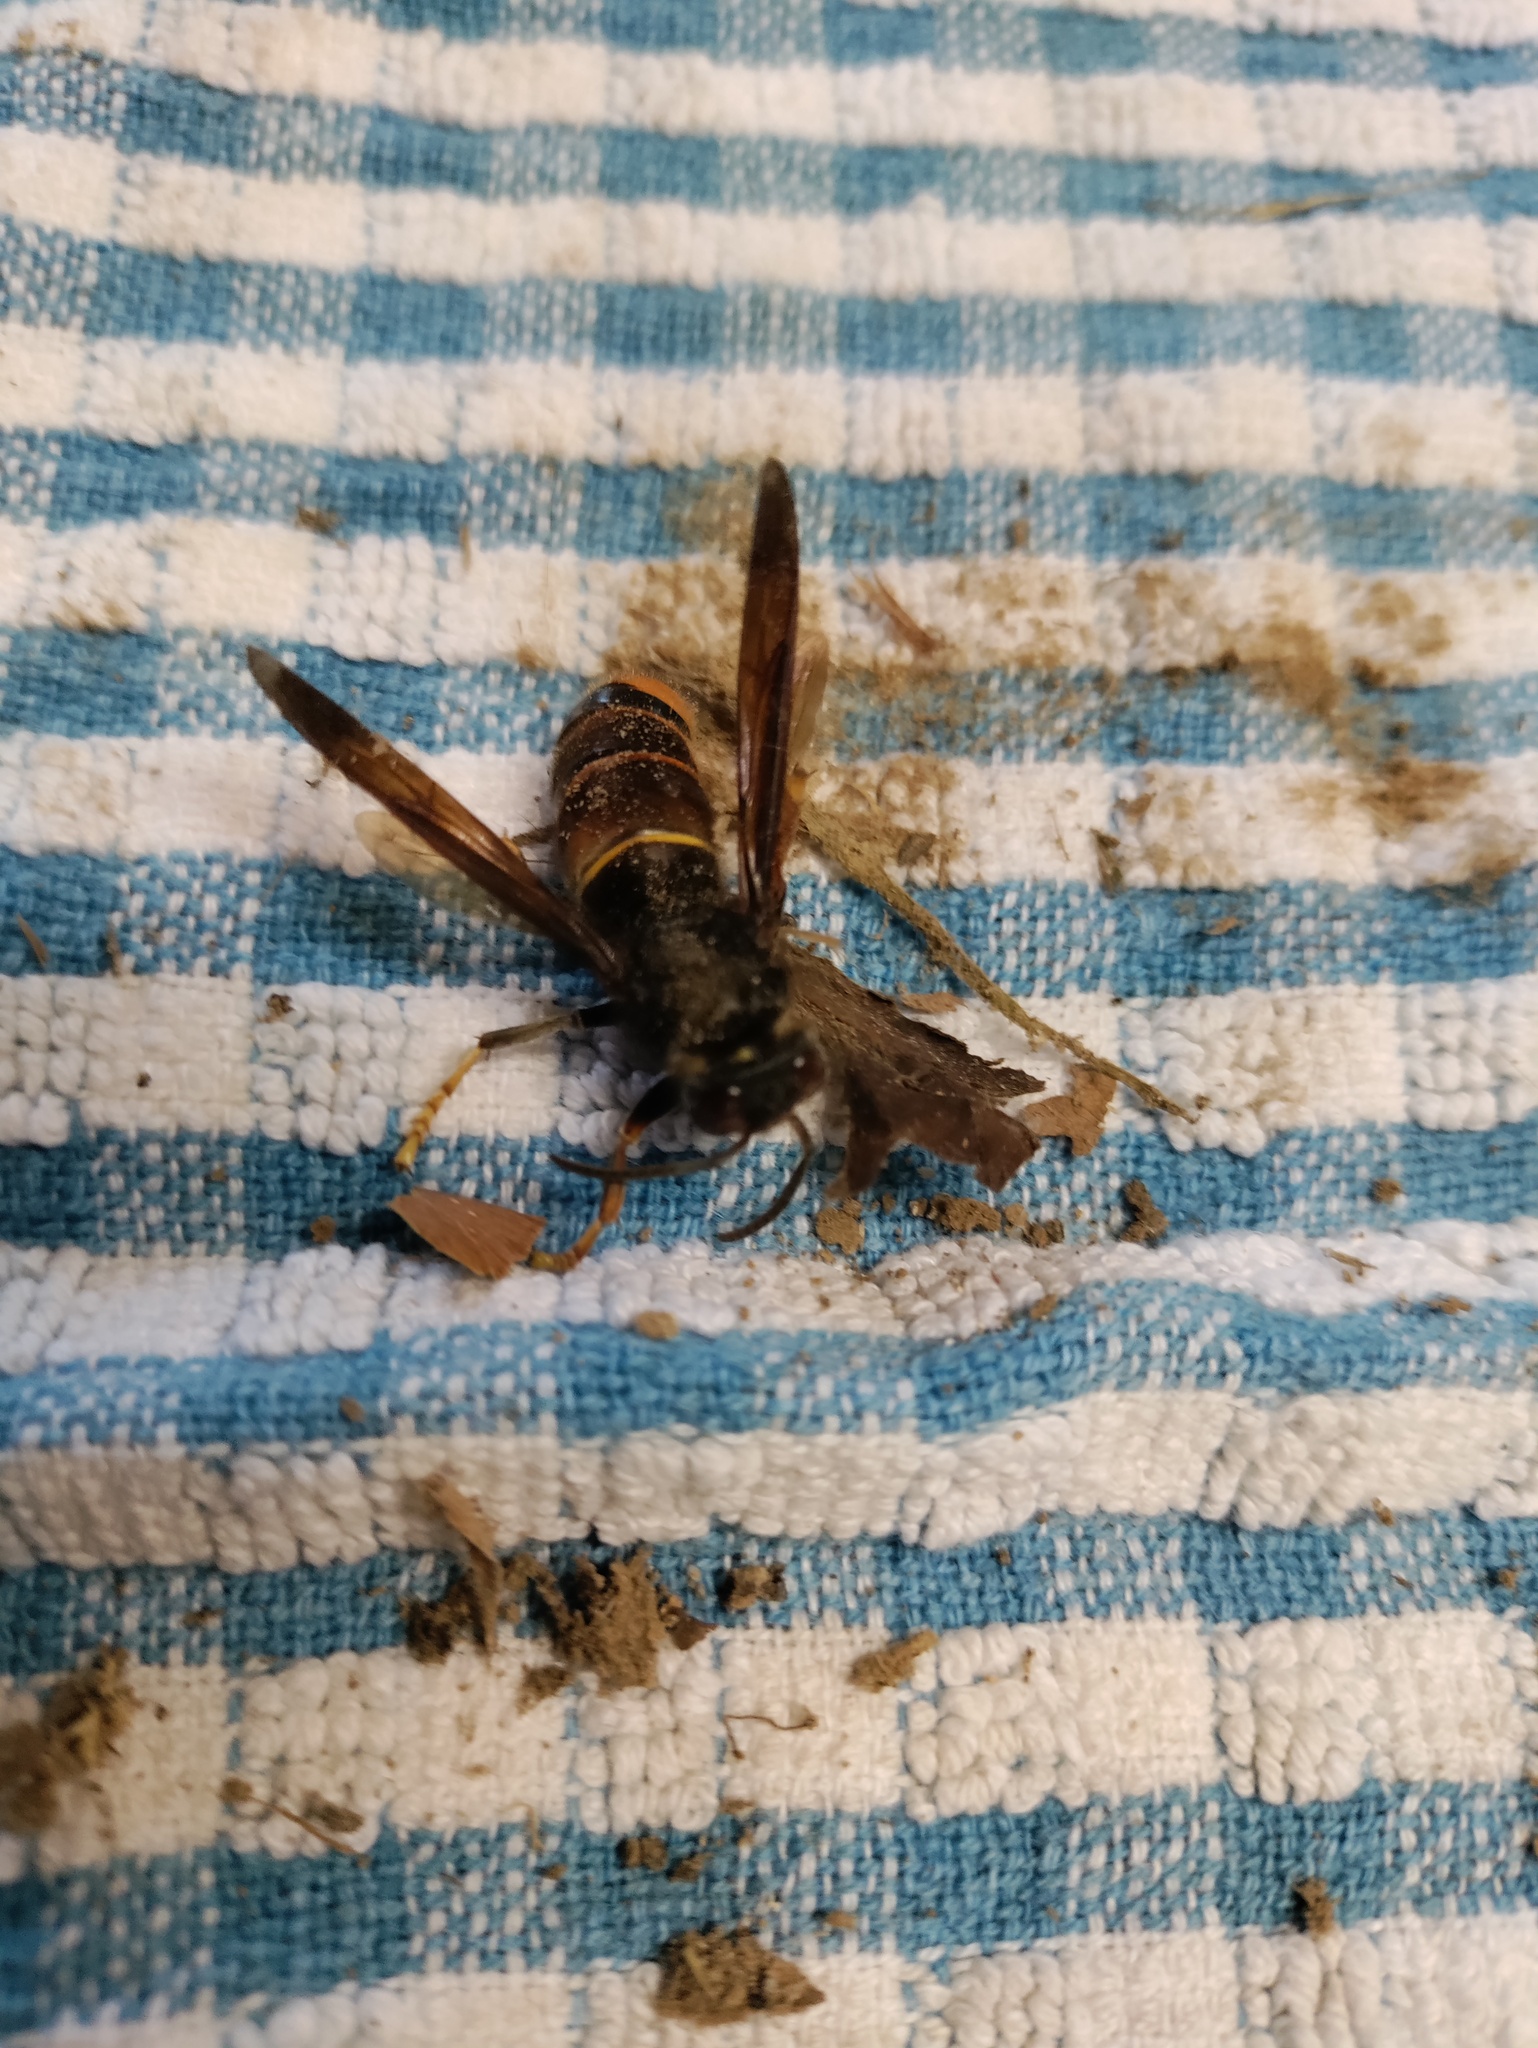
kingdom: Animalia
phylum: Arthropoda
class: Insecta
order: Hymenoptera
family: Vespidae
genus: Vespa
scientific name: Vespa velutina
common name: Asian hornet
